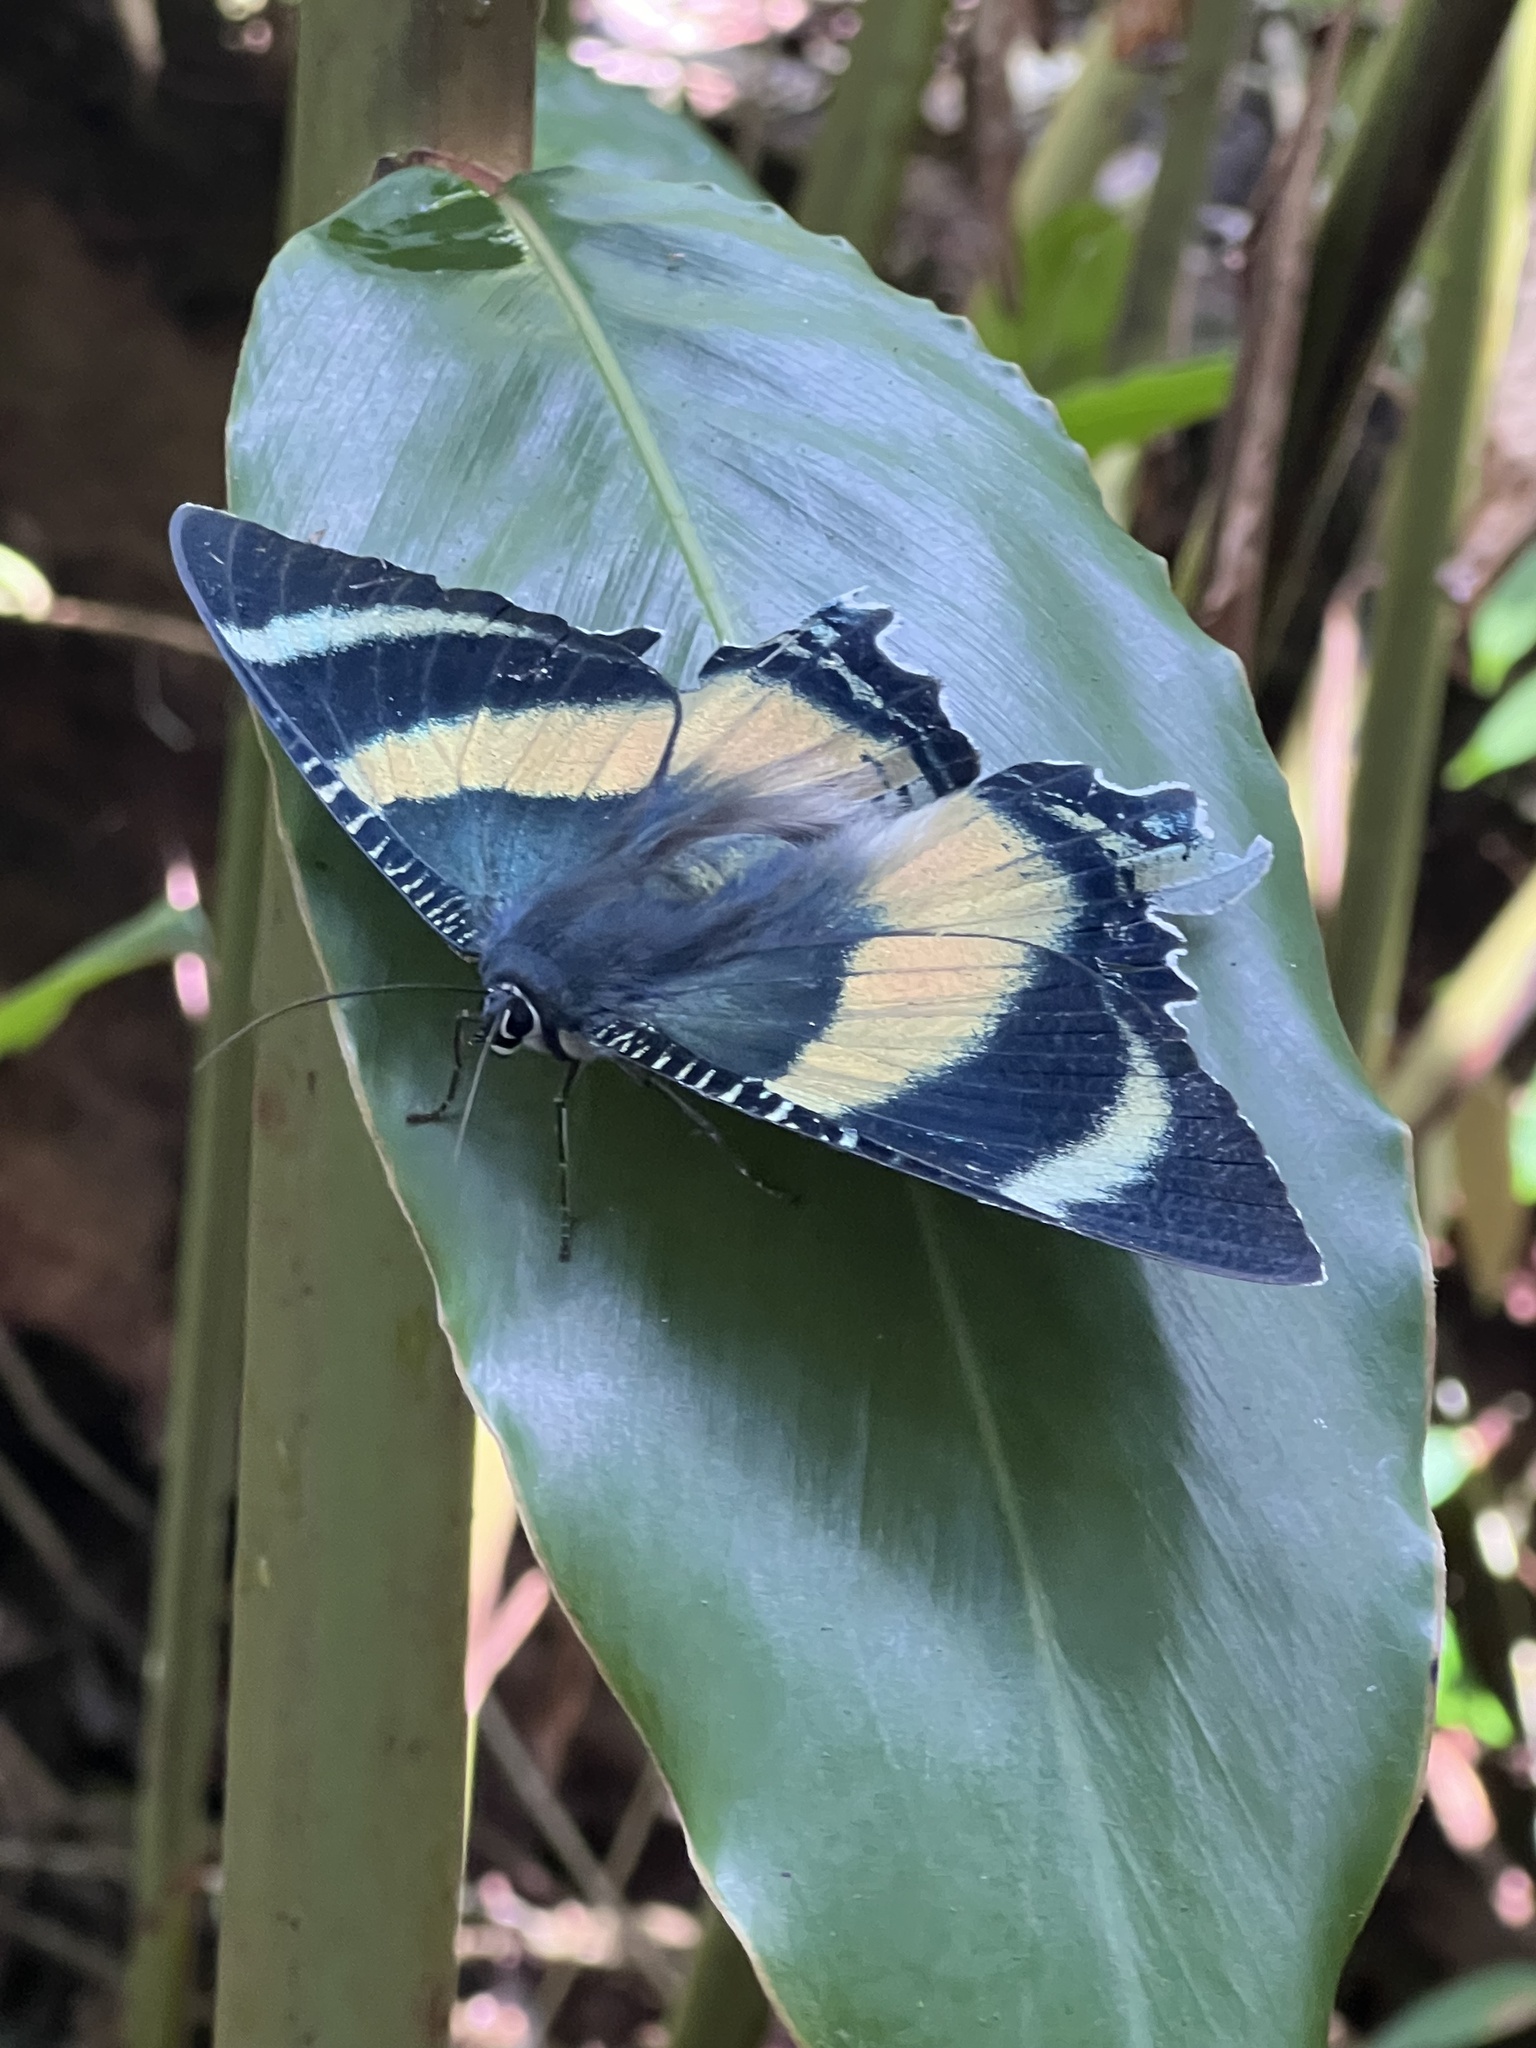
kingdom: Animalia
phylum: Arthropoda
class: Insecta
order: Lepidoptera
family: Uraniidae
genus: Alcides
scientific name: Alcides metaurus
